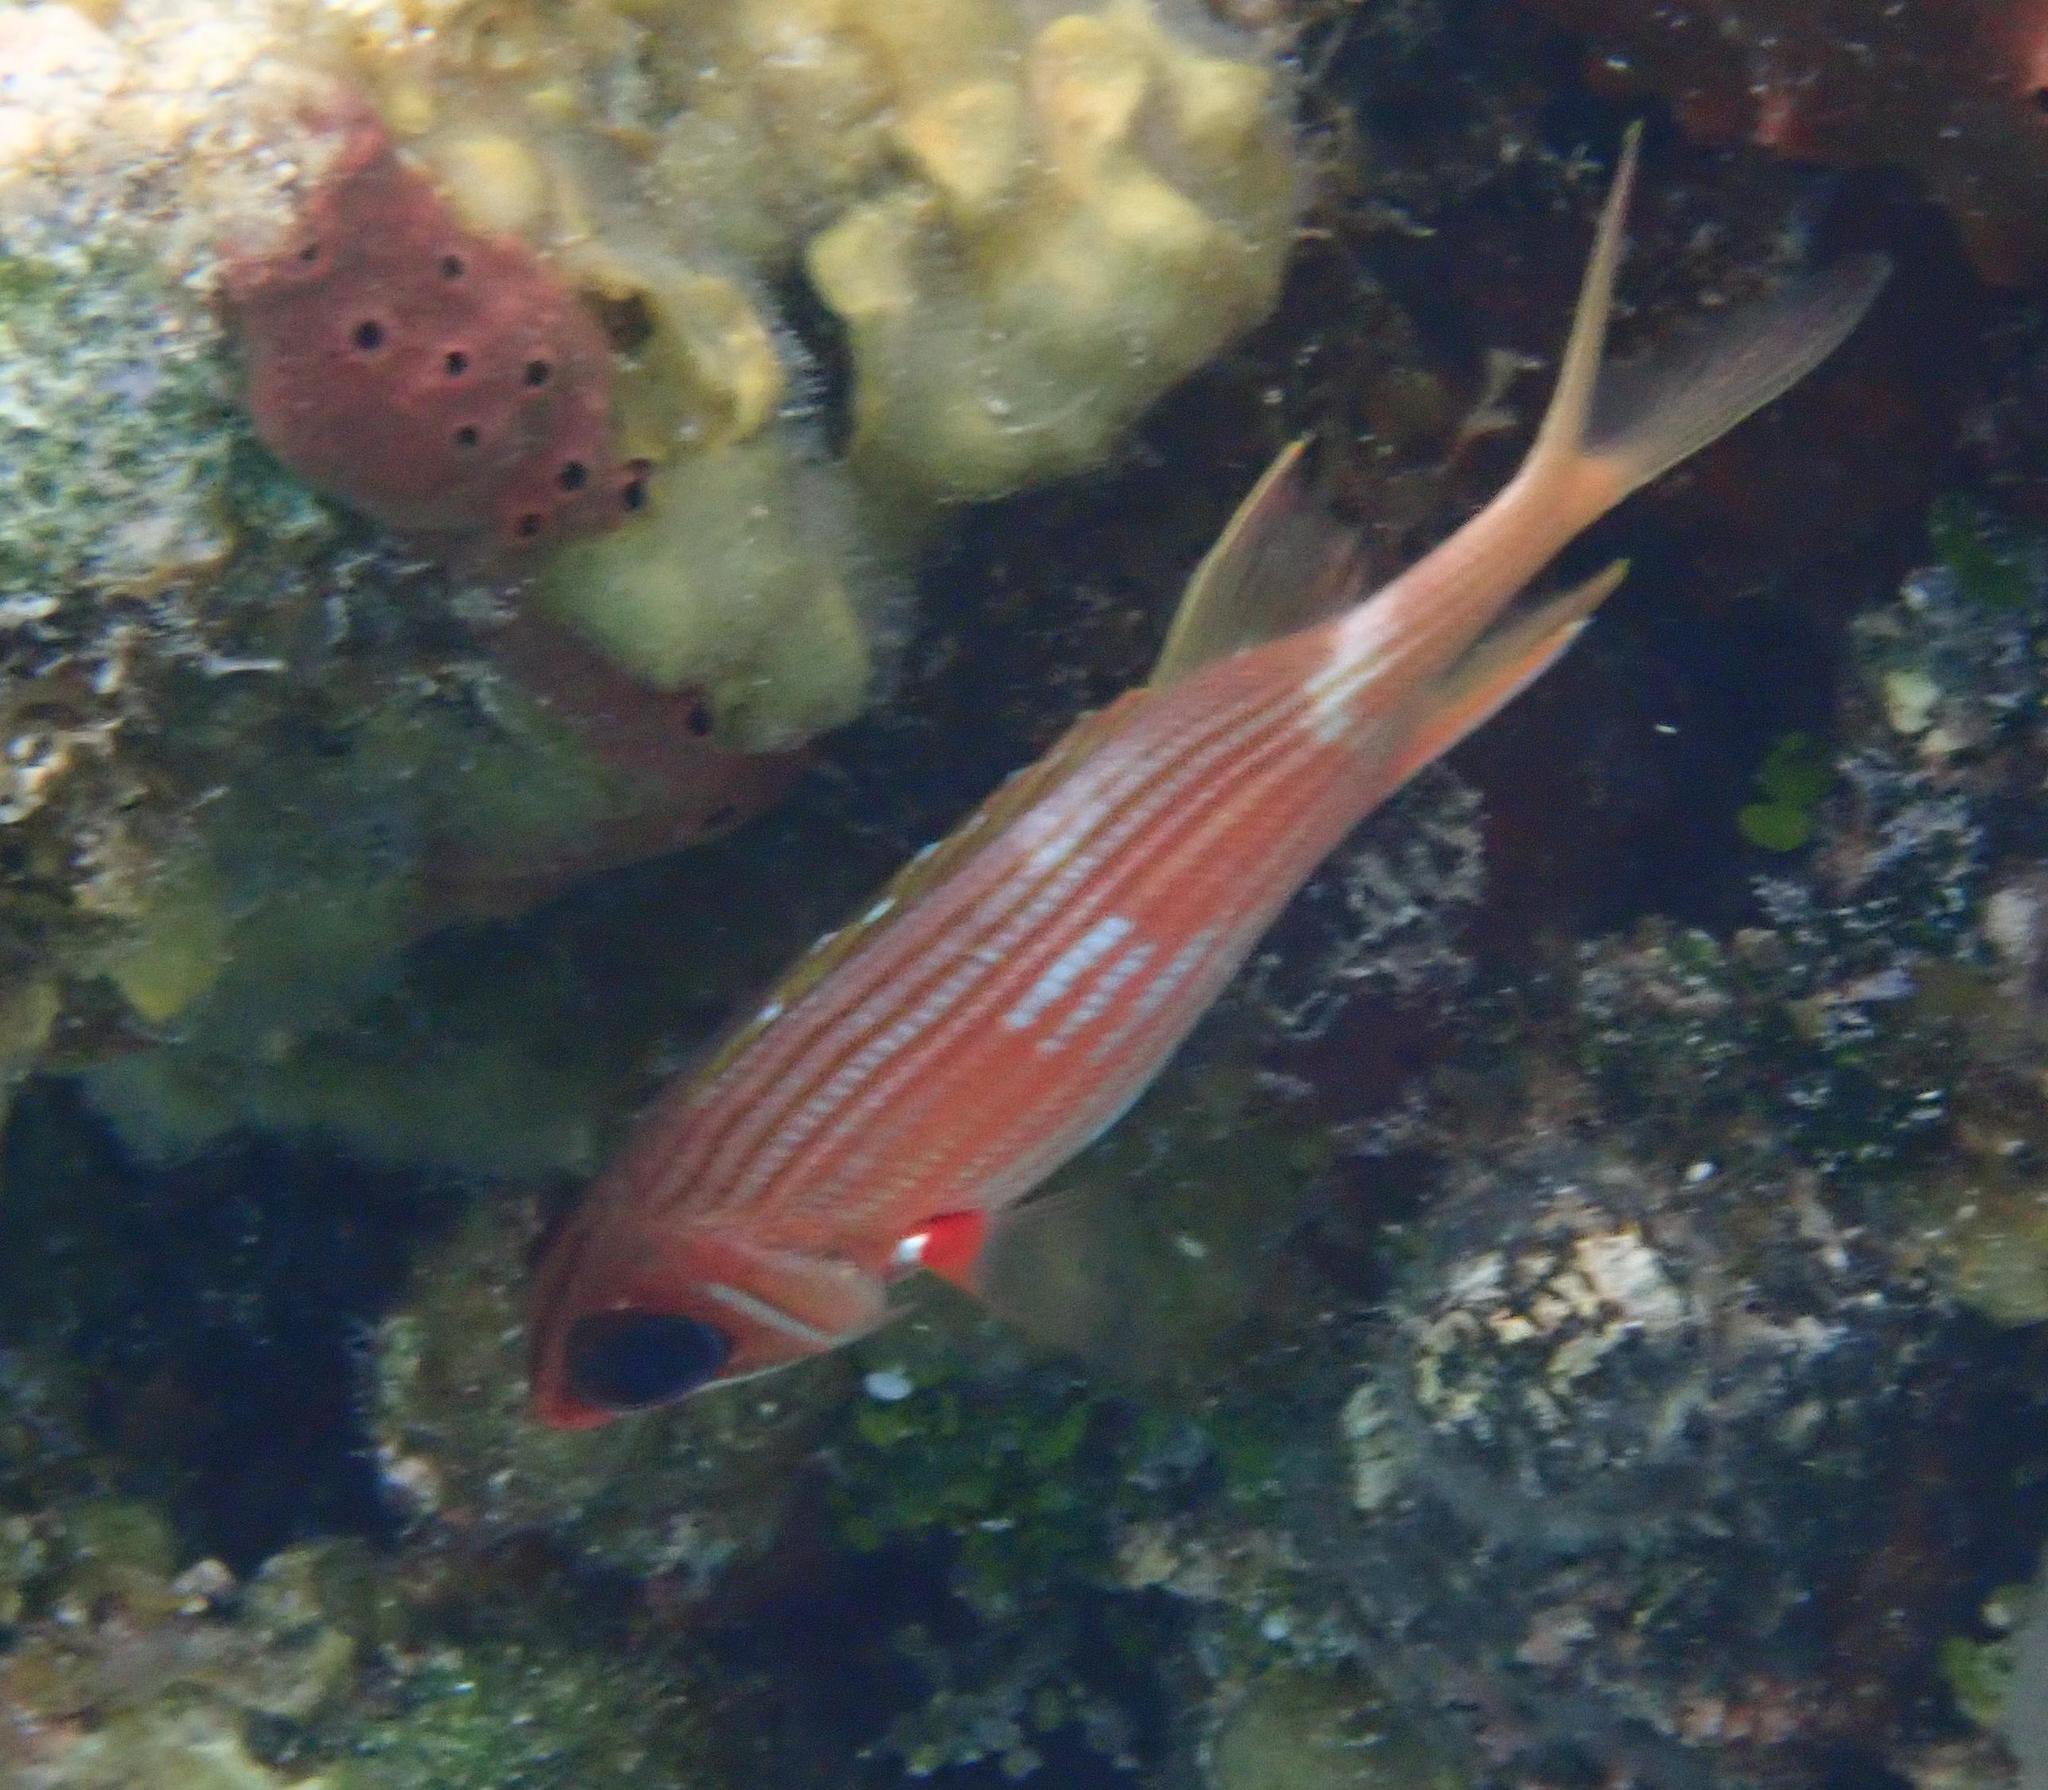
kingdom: Animalia
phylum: Chordata
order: Beryciformes
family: Holocentridae
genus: Holocentrus
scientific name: Holocentrus rufus
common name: Longspine squirrelfish
